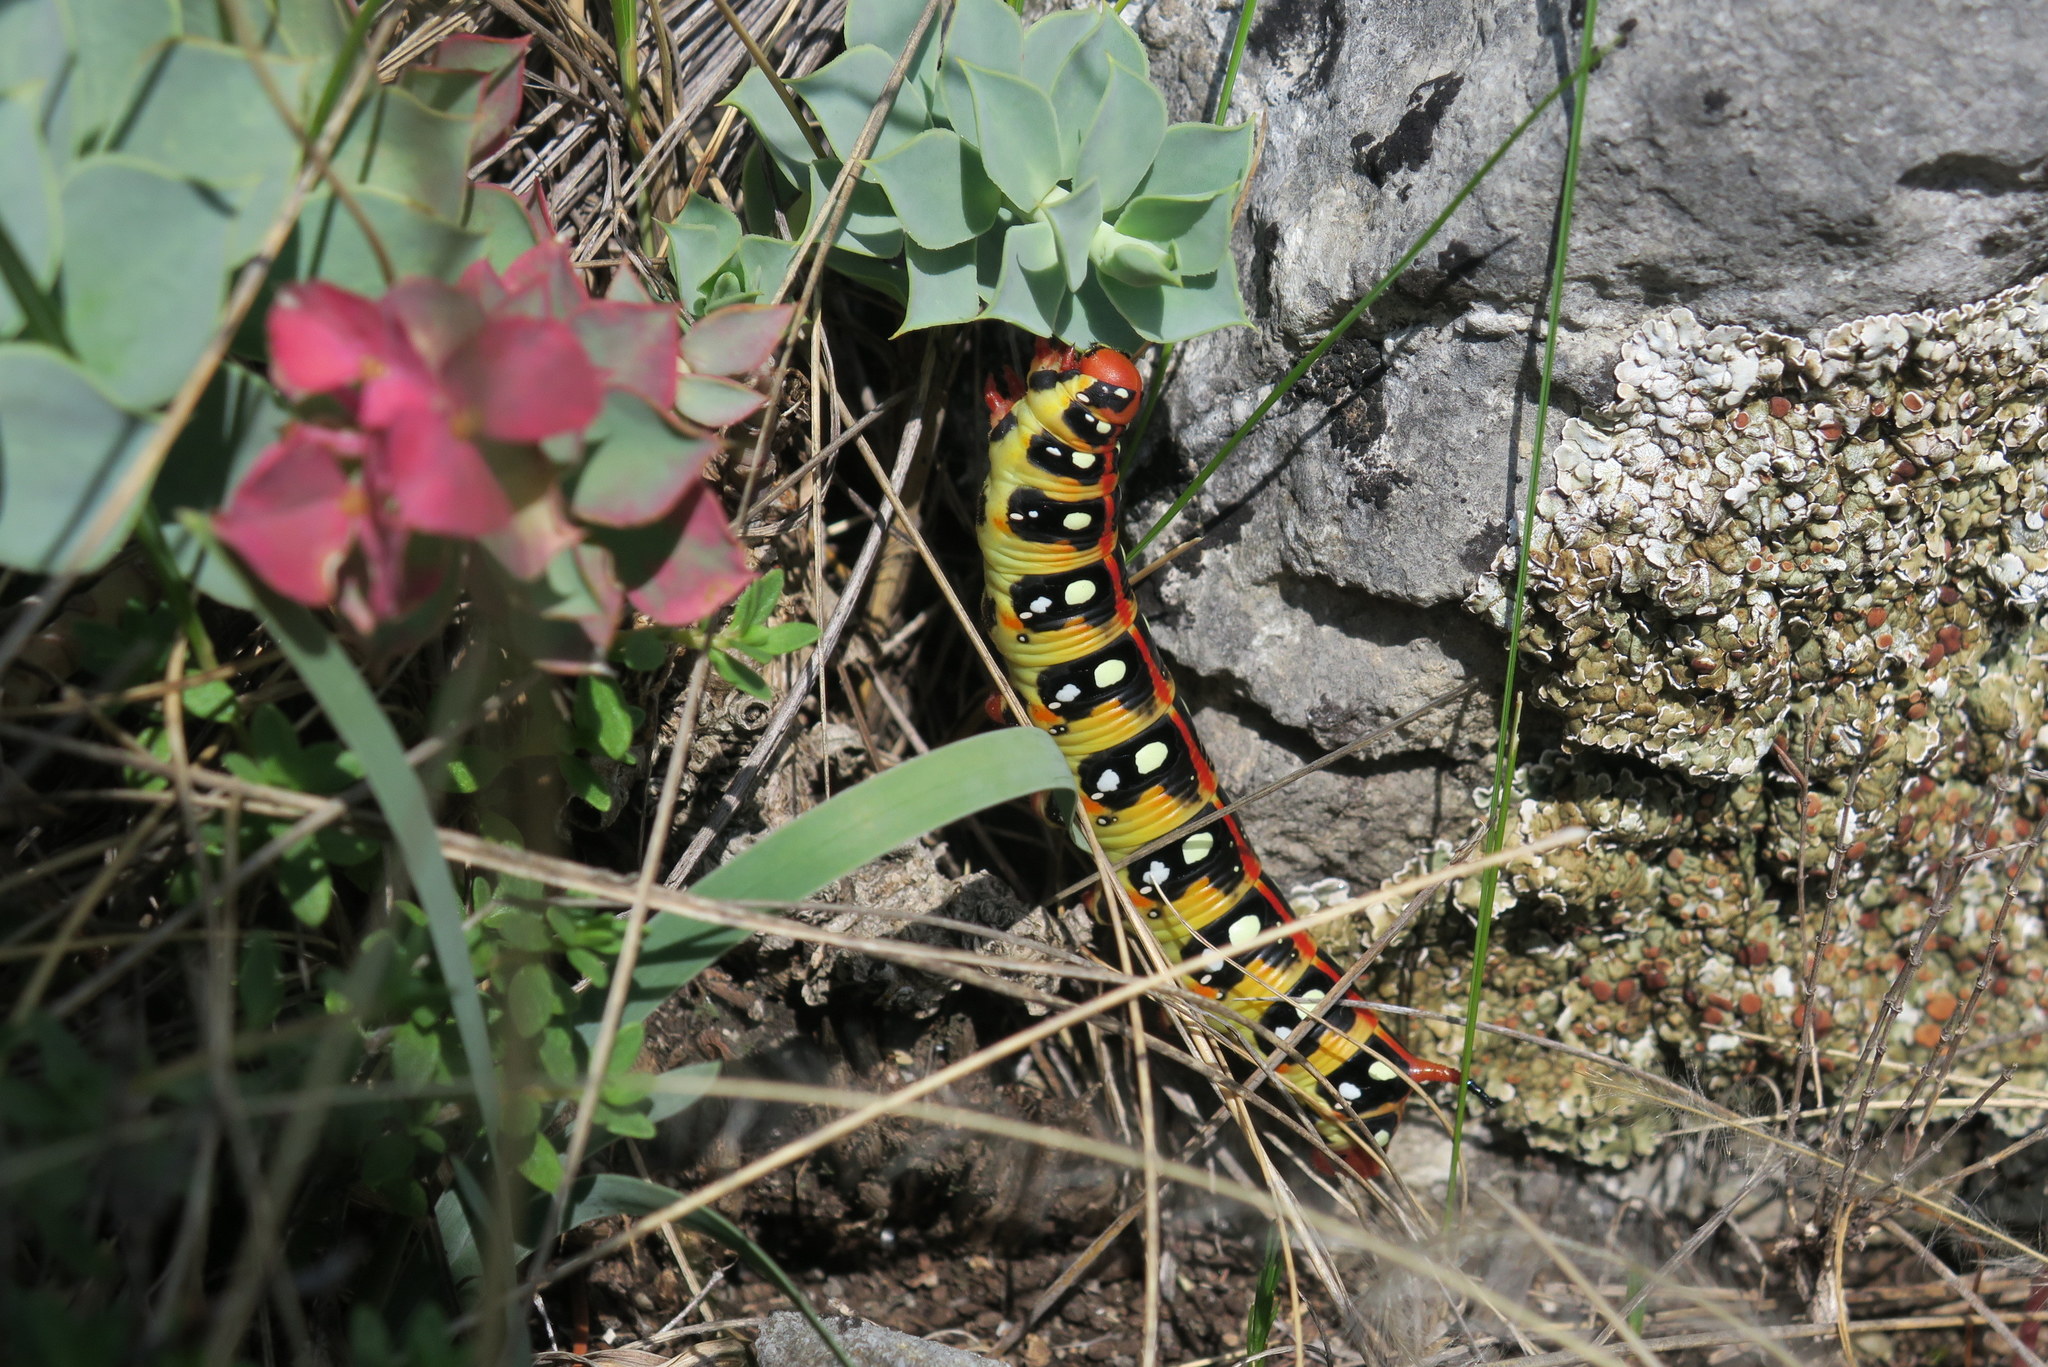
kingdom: Animalia
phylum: Arthropoda
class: Insecta
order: Lepidoptera
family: Sphingidae
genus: Hyles
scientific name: Hyles euphorbiae
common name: Spurge hawk-moth
